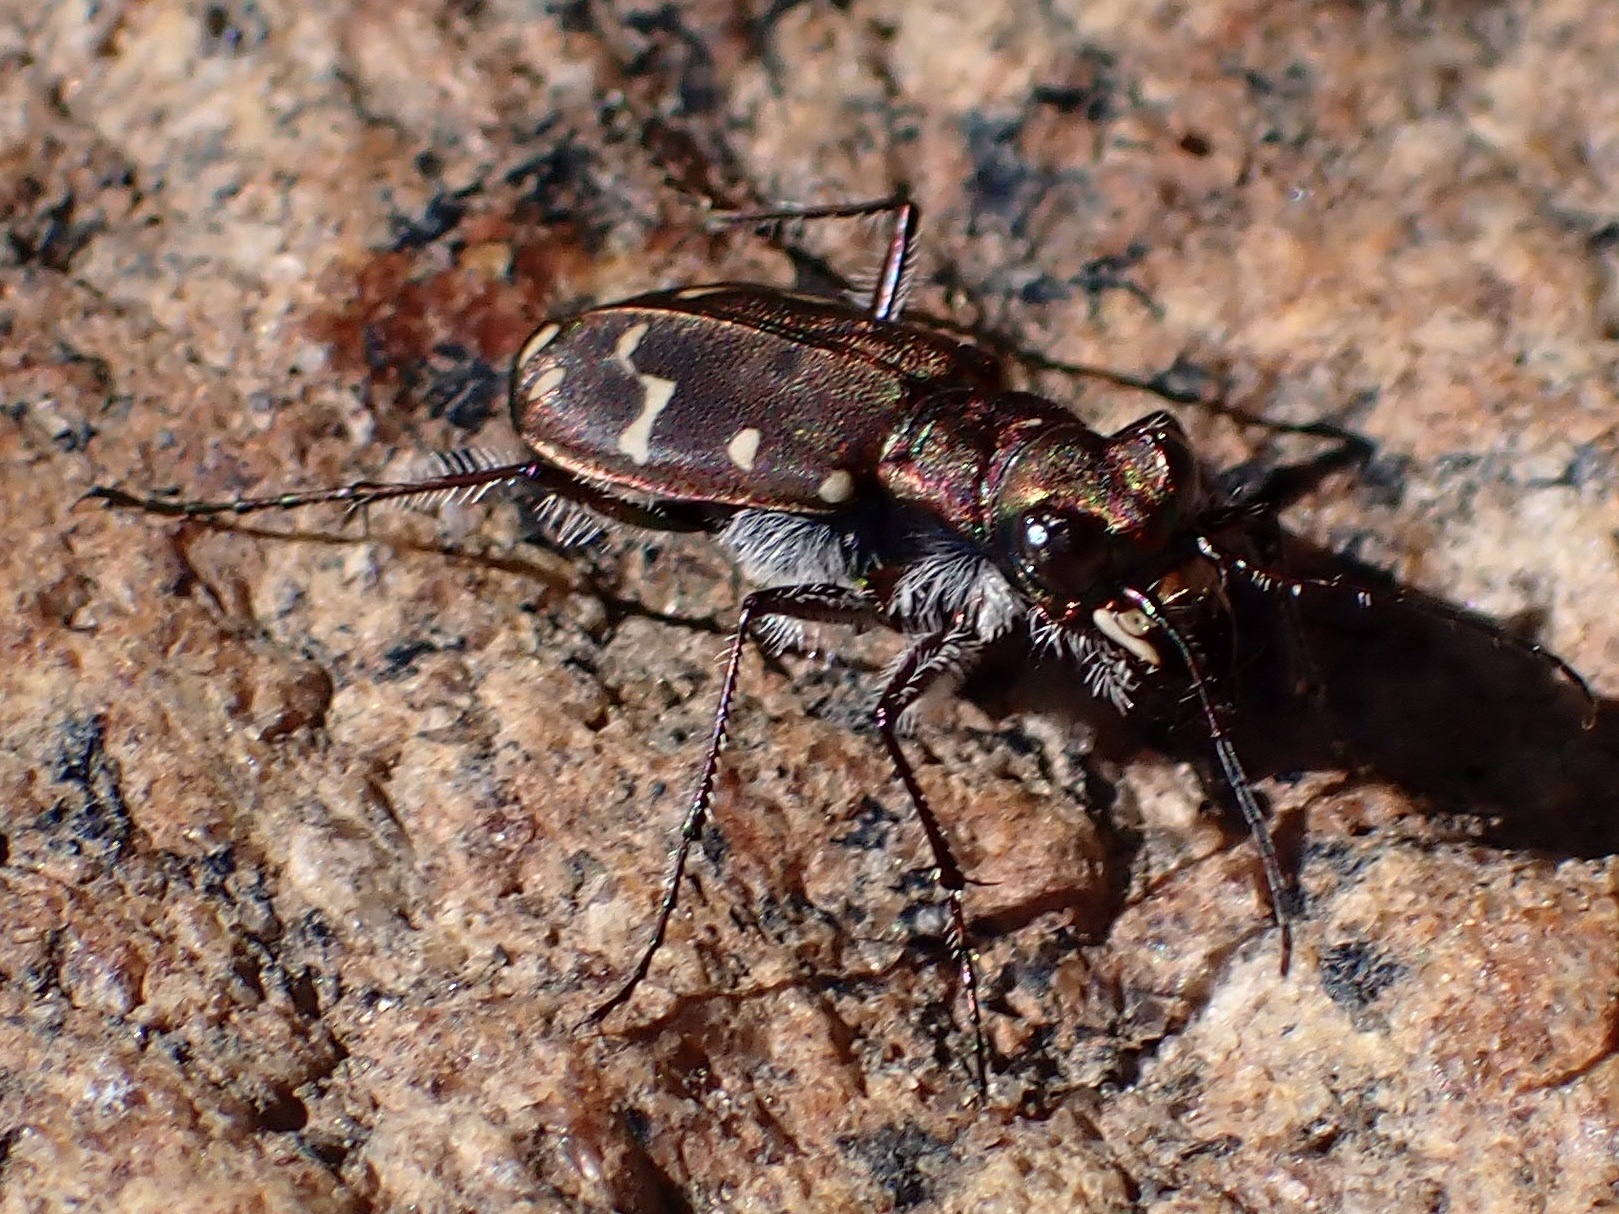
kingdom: Animalia
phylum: Arthropoda
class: Insecta
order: Coleoptera
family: Carabidae
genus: Cicindela
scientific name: Cicindela oregona
